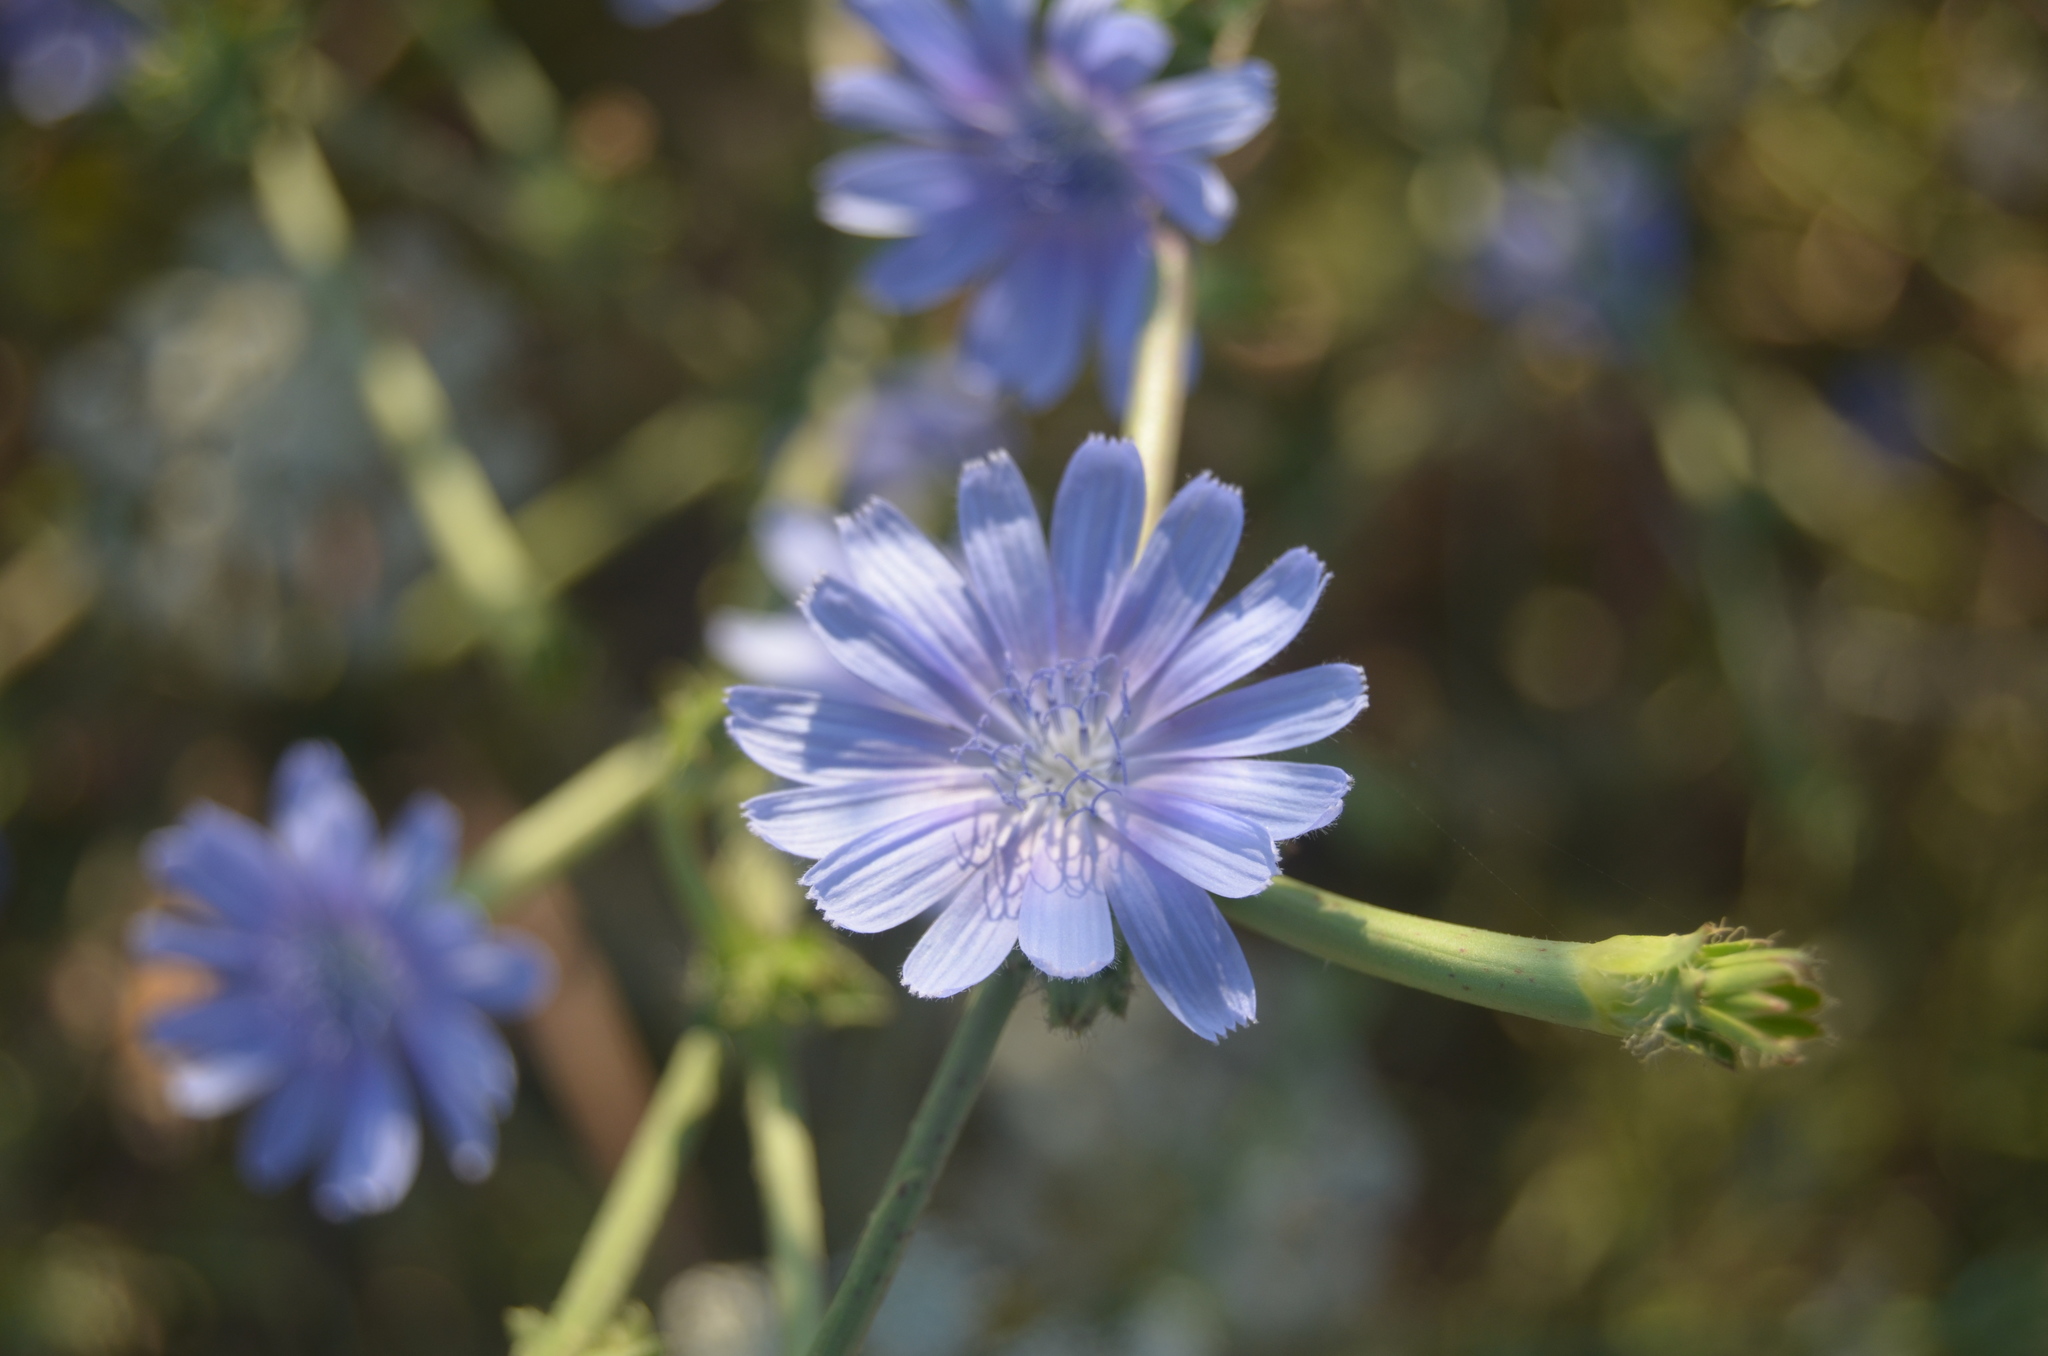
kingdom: Plantae
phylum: Tracheophyta
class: Magnoliopsida
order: Asterales
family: Asteraceae
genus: Cichorium
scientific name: Cichorium intybus
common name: Chicory
